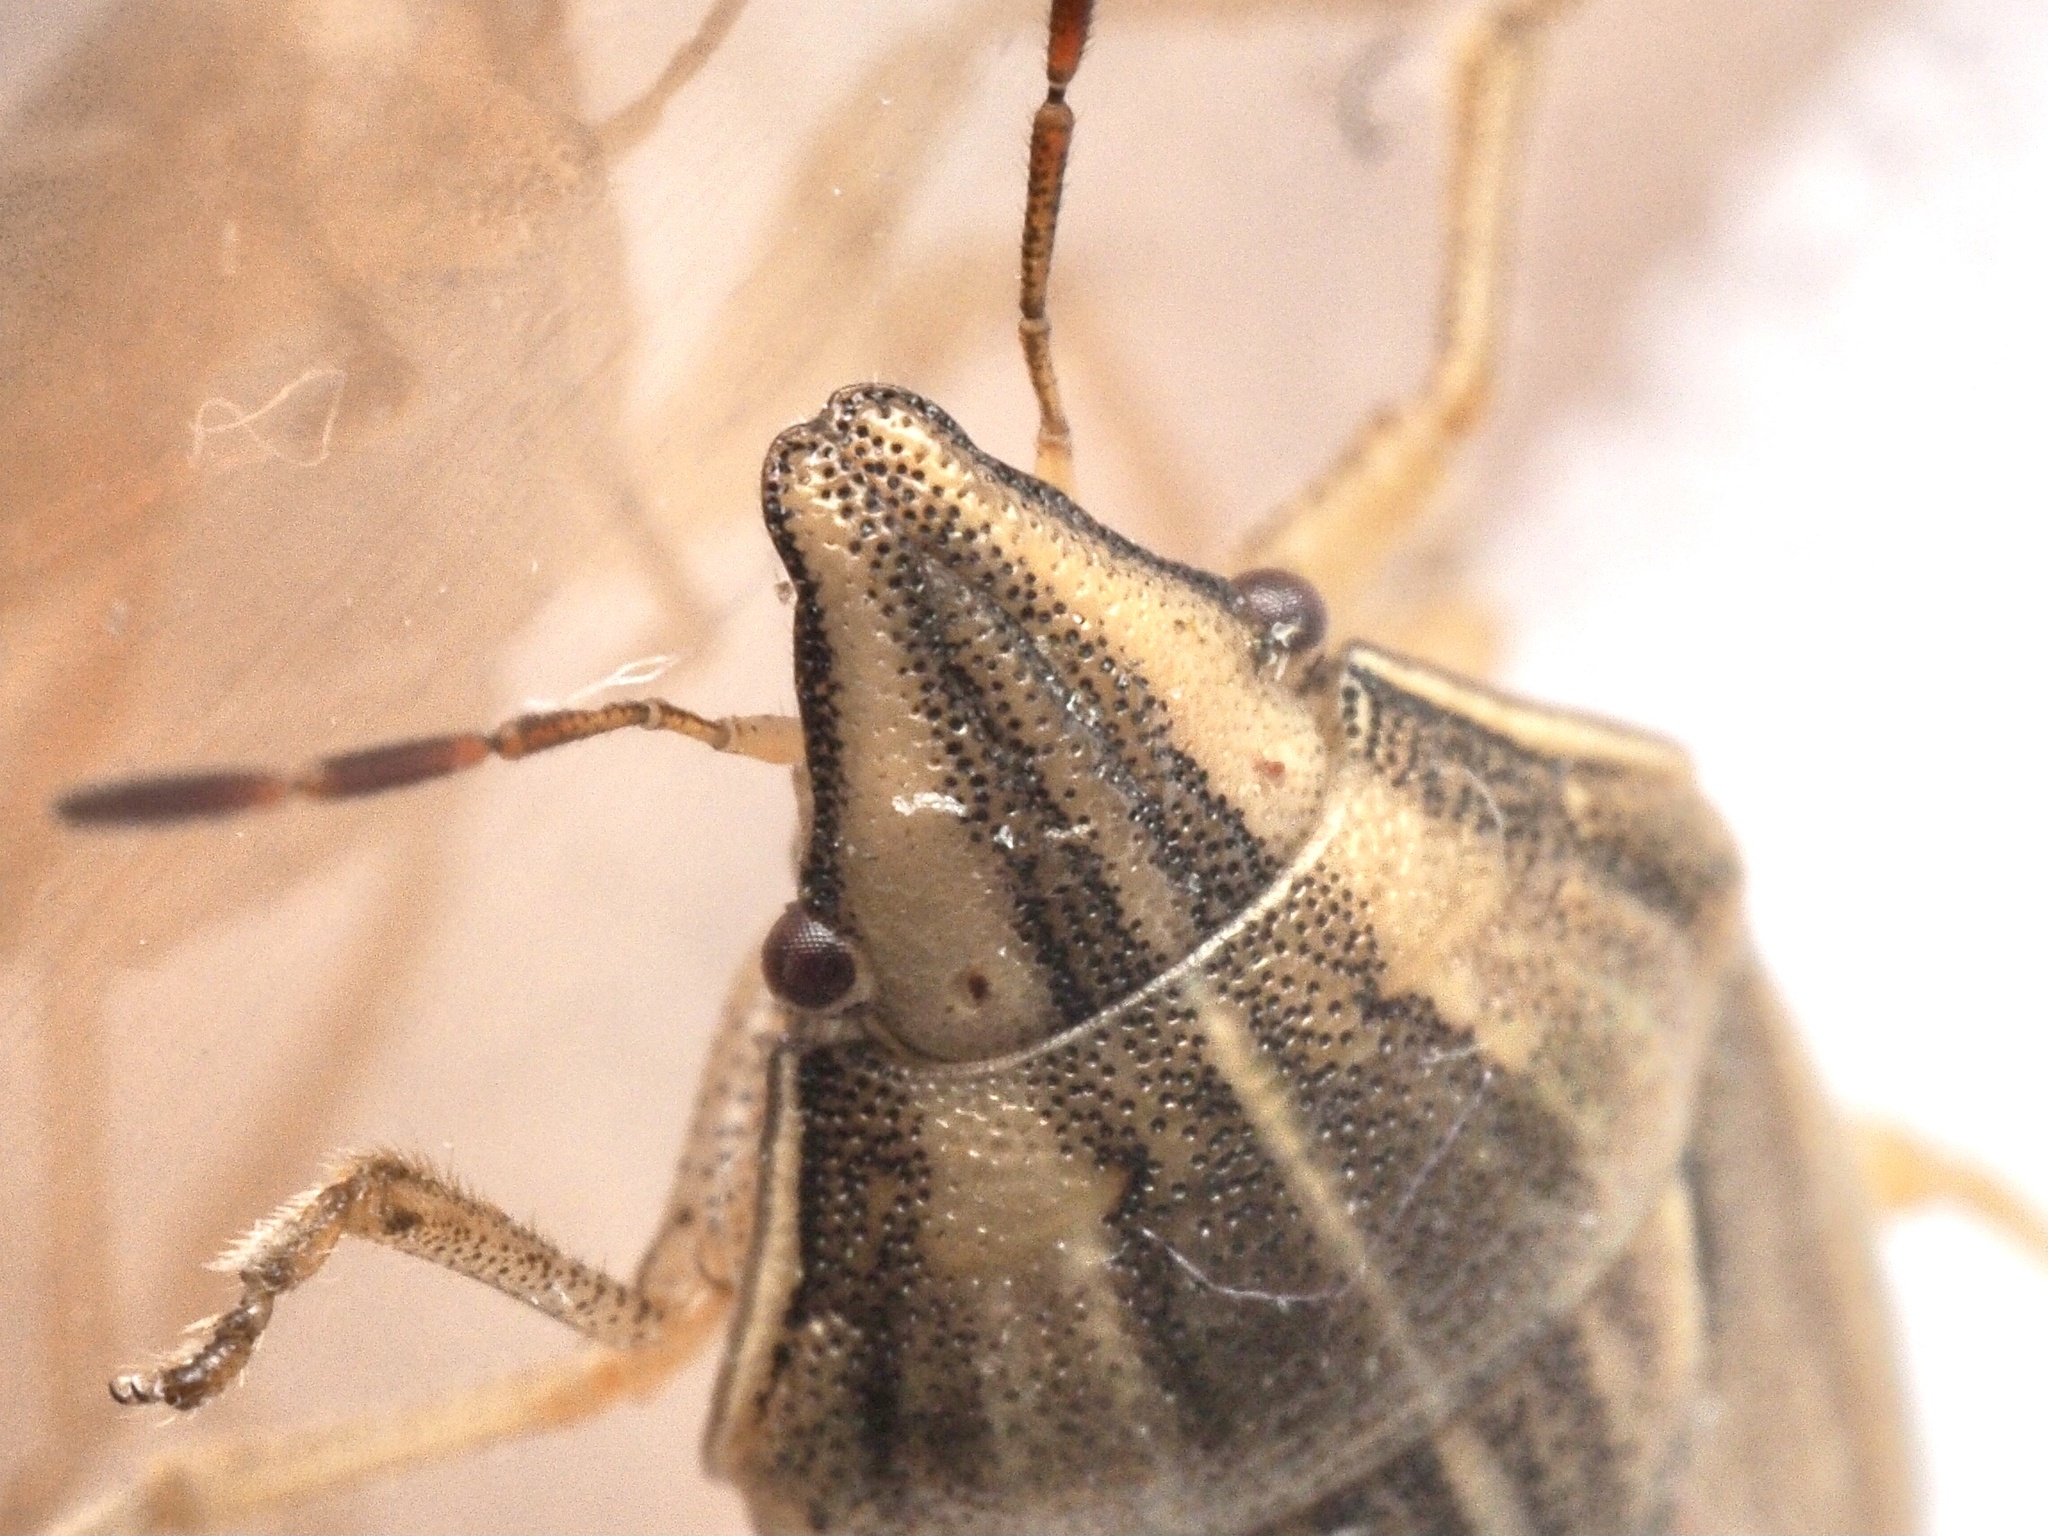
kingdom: Animalia
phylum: Arthropoda
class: Insecta
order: Hemiptera
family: Pentatomidae
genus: Aelia
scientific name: Aelia acuminata
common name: Bishop's mitre
